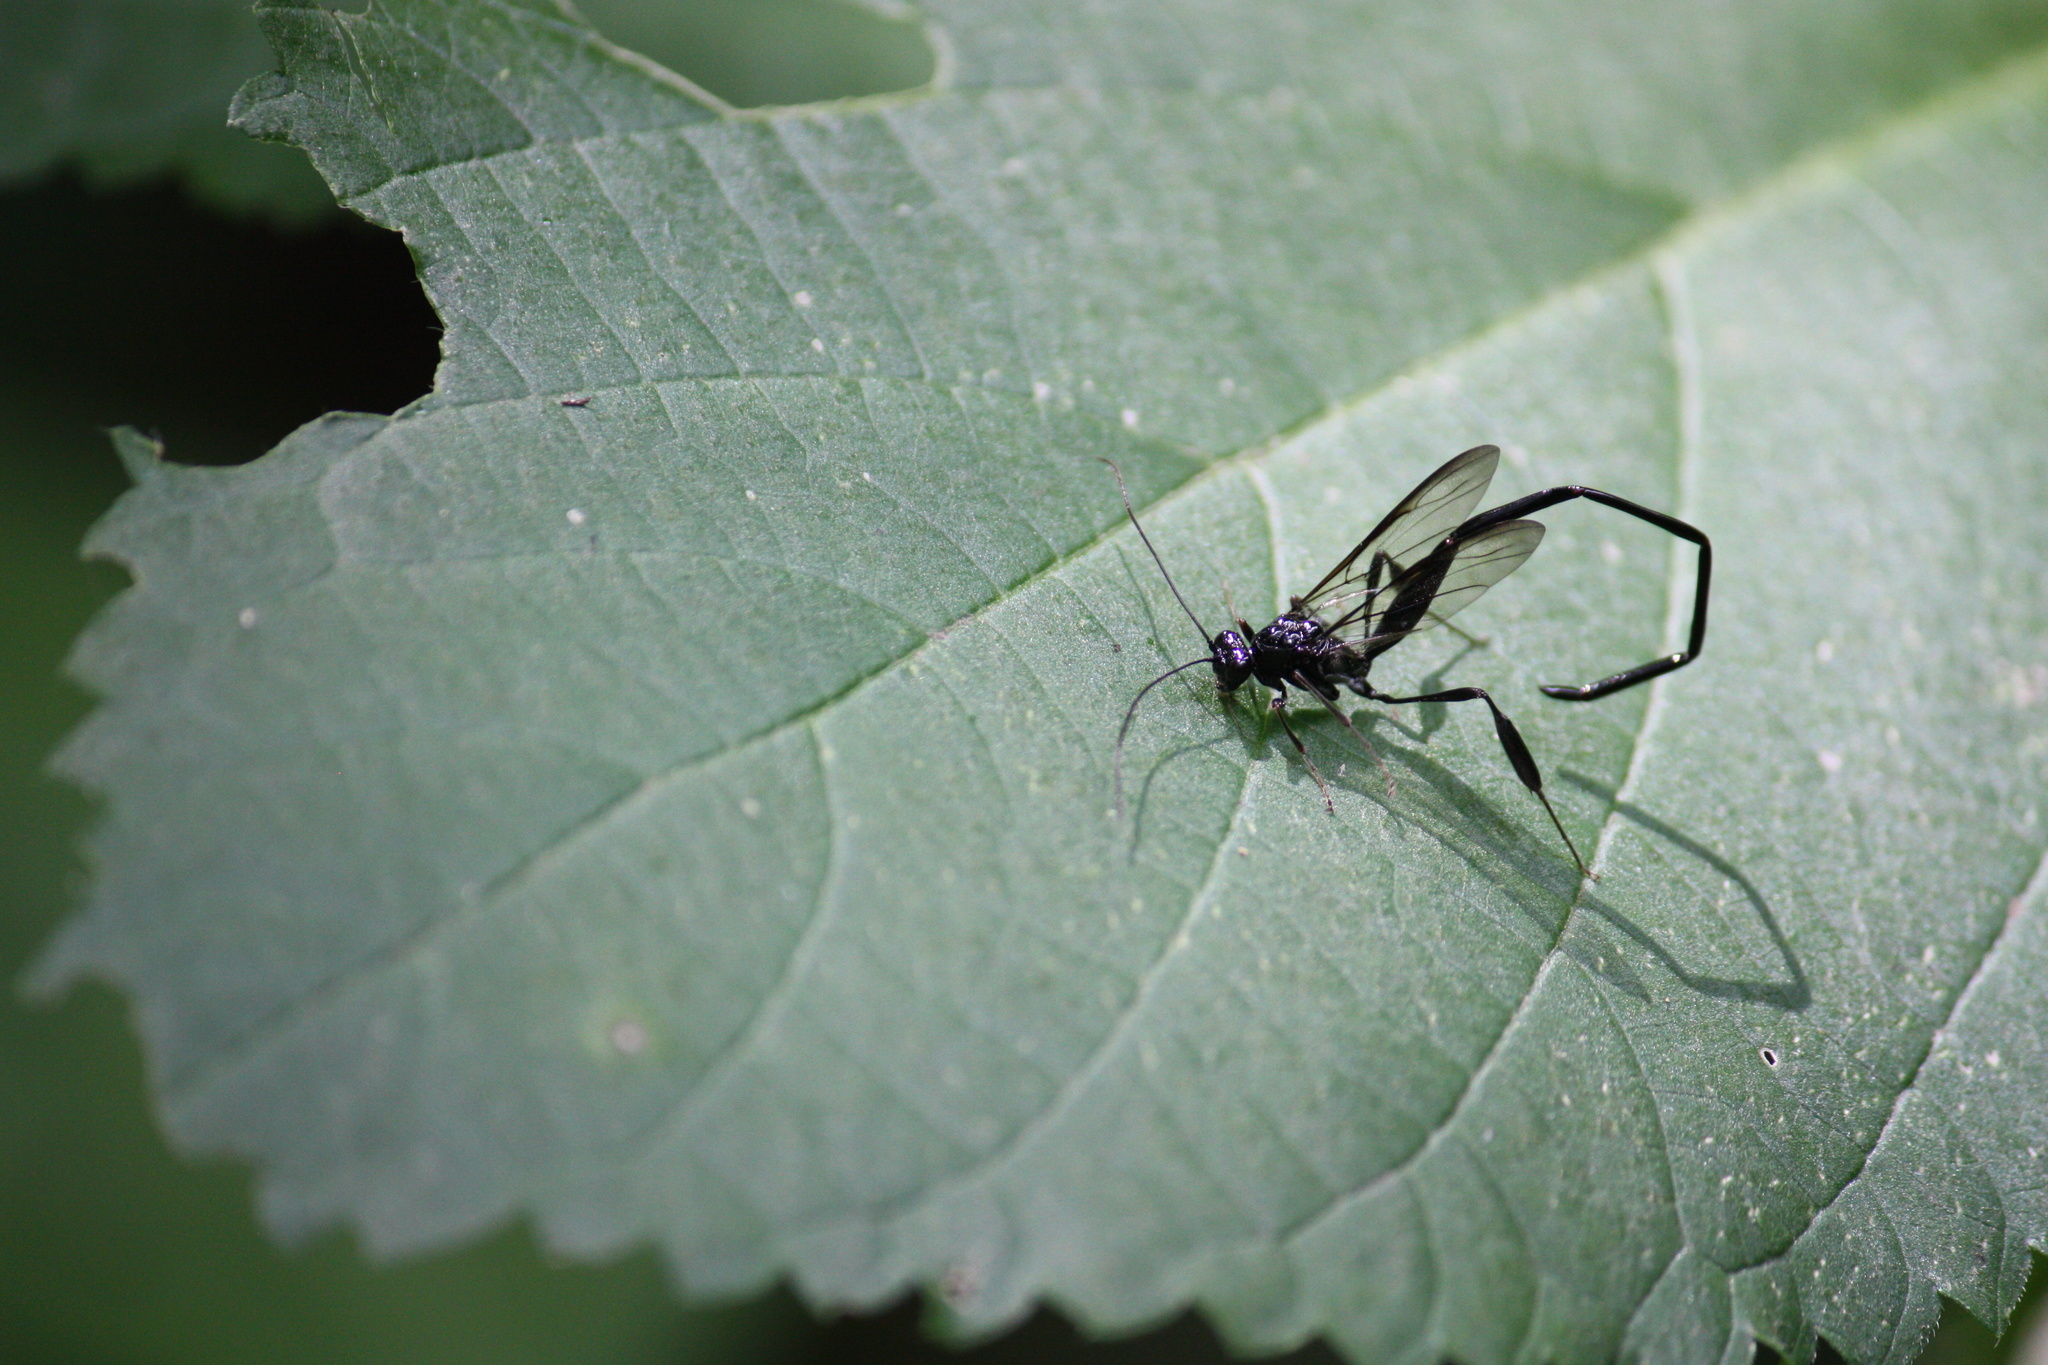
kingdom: Animalia
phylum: Arthropoda
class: Insecta
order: Hymenoptera
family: Pelecinidae
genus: Pelecinus
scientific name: Pelecinus polyturator
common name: American pelecinid wasp
